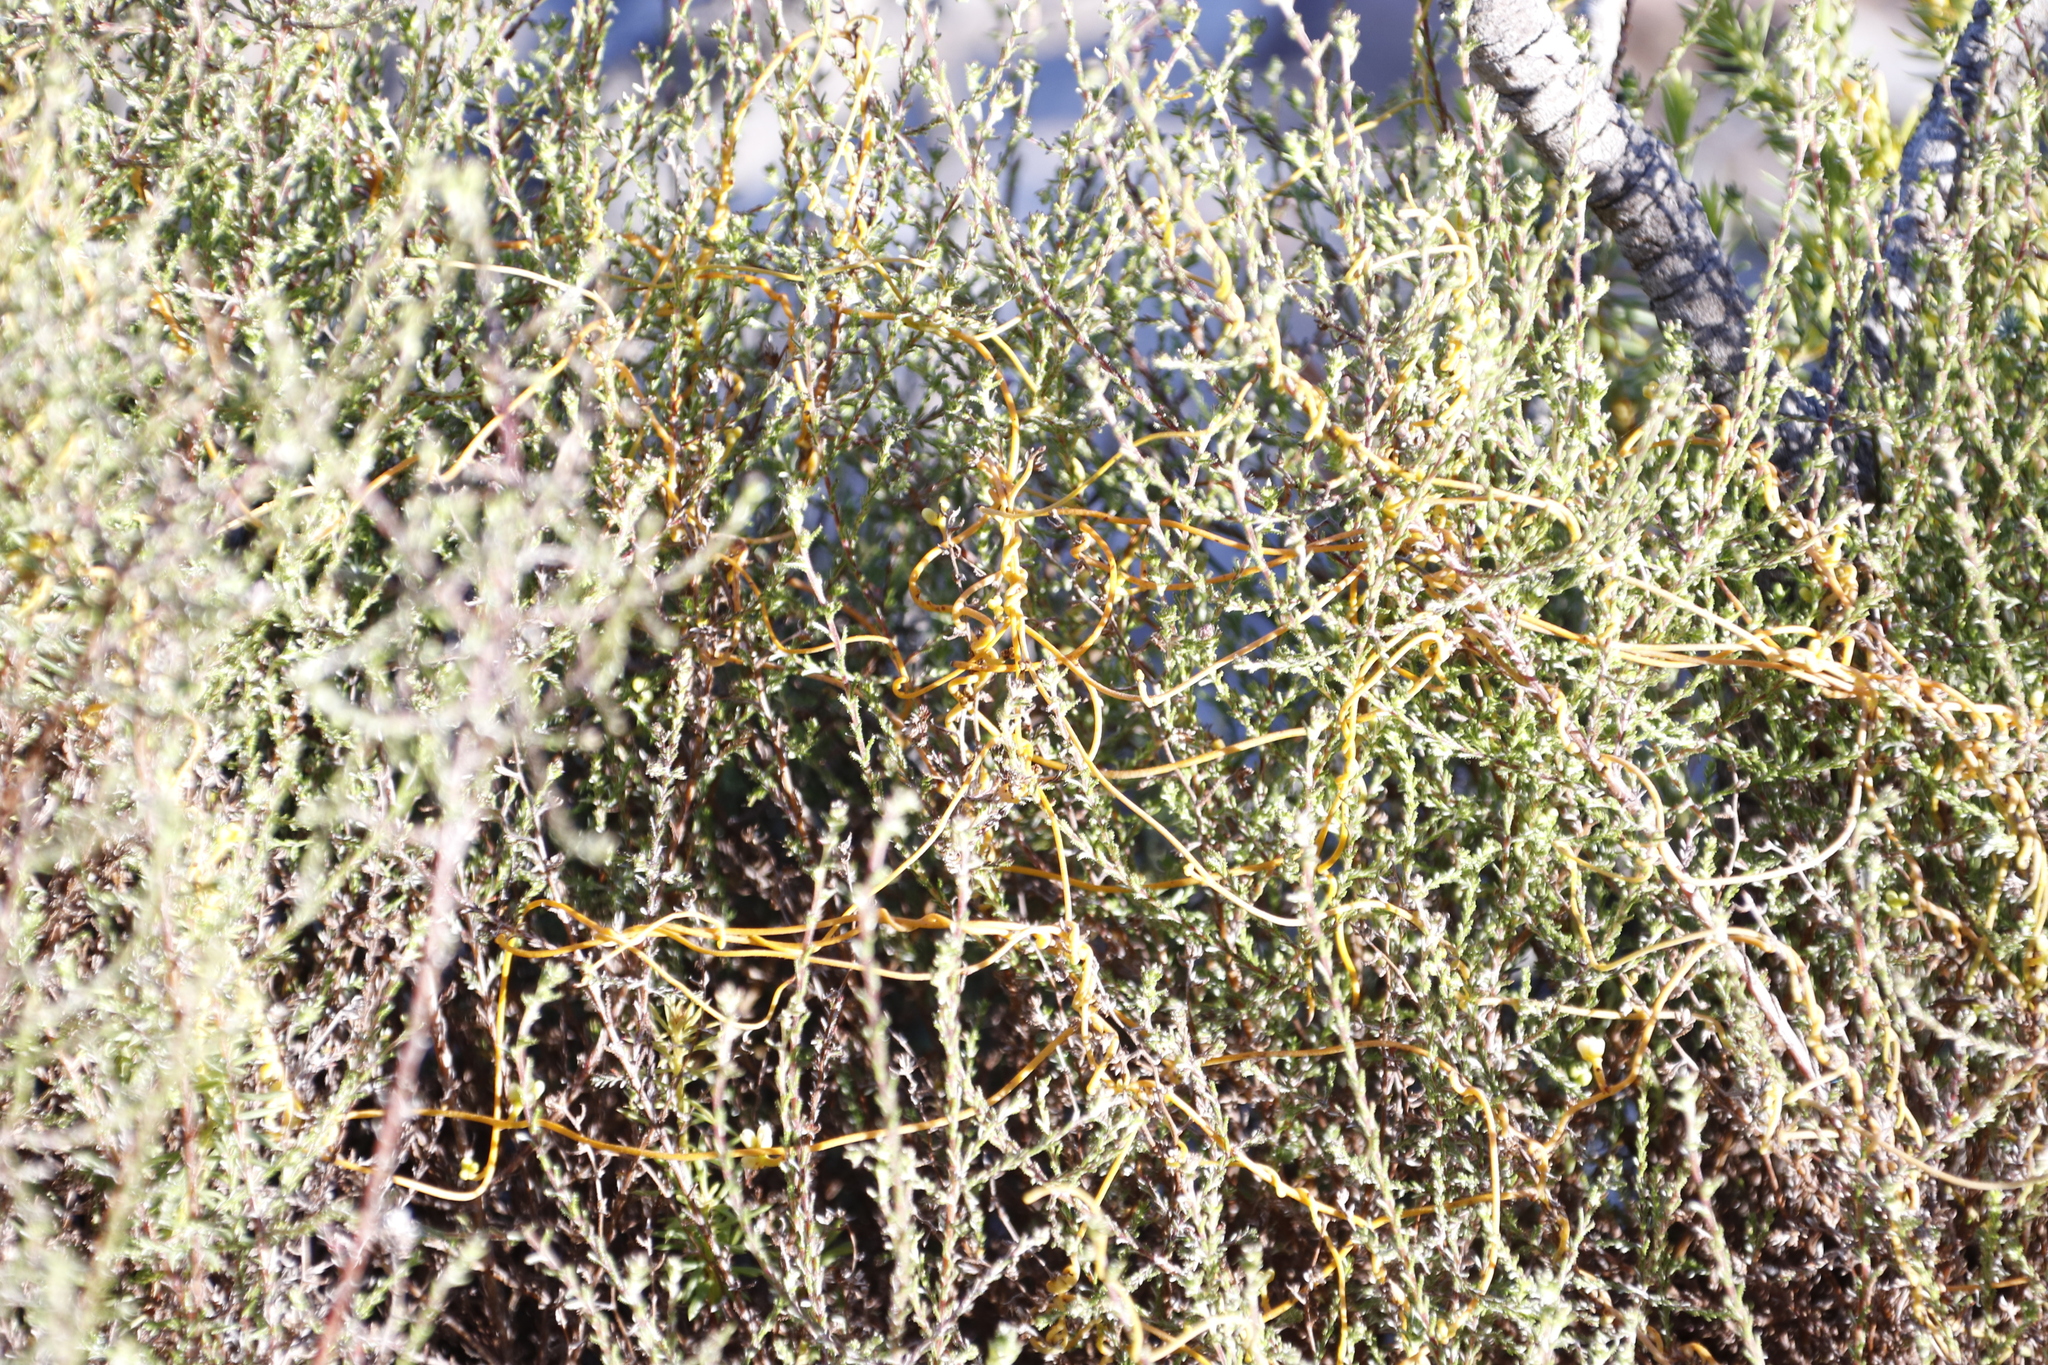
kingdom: Plantae
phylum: Tracheophyta
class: Magnoliopsida
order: Laurales
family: Lauraceae
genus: Cassytha
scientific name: Cassytha ciliolata
